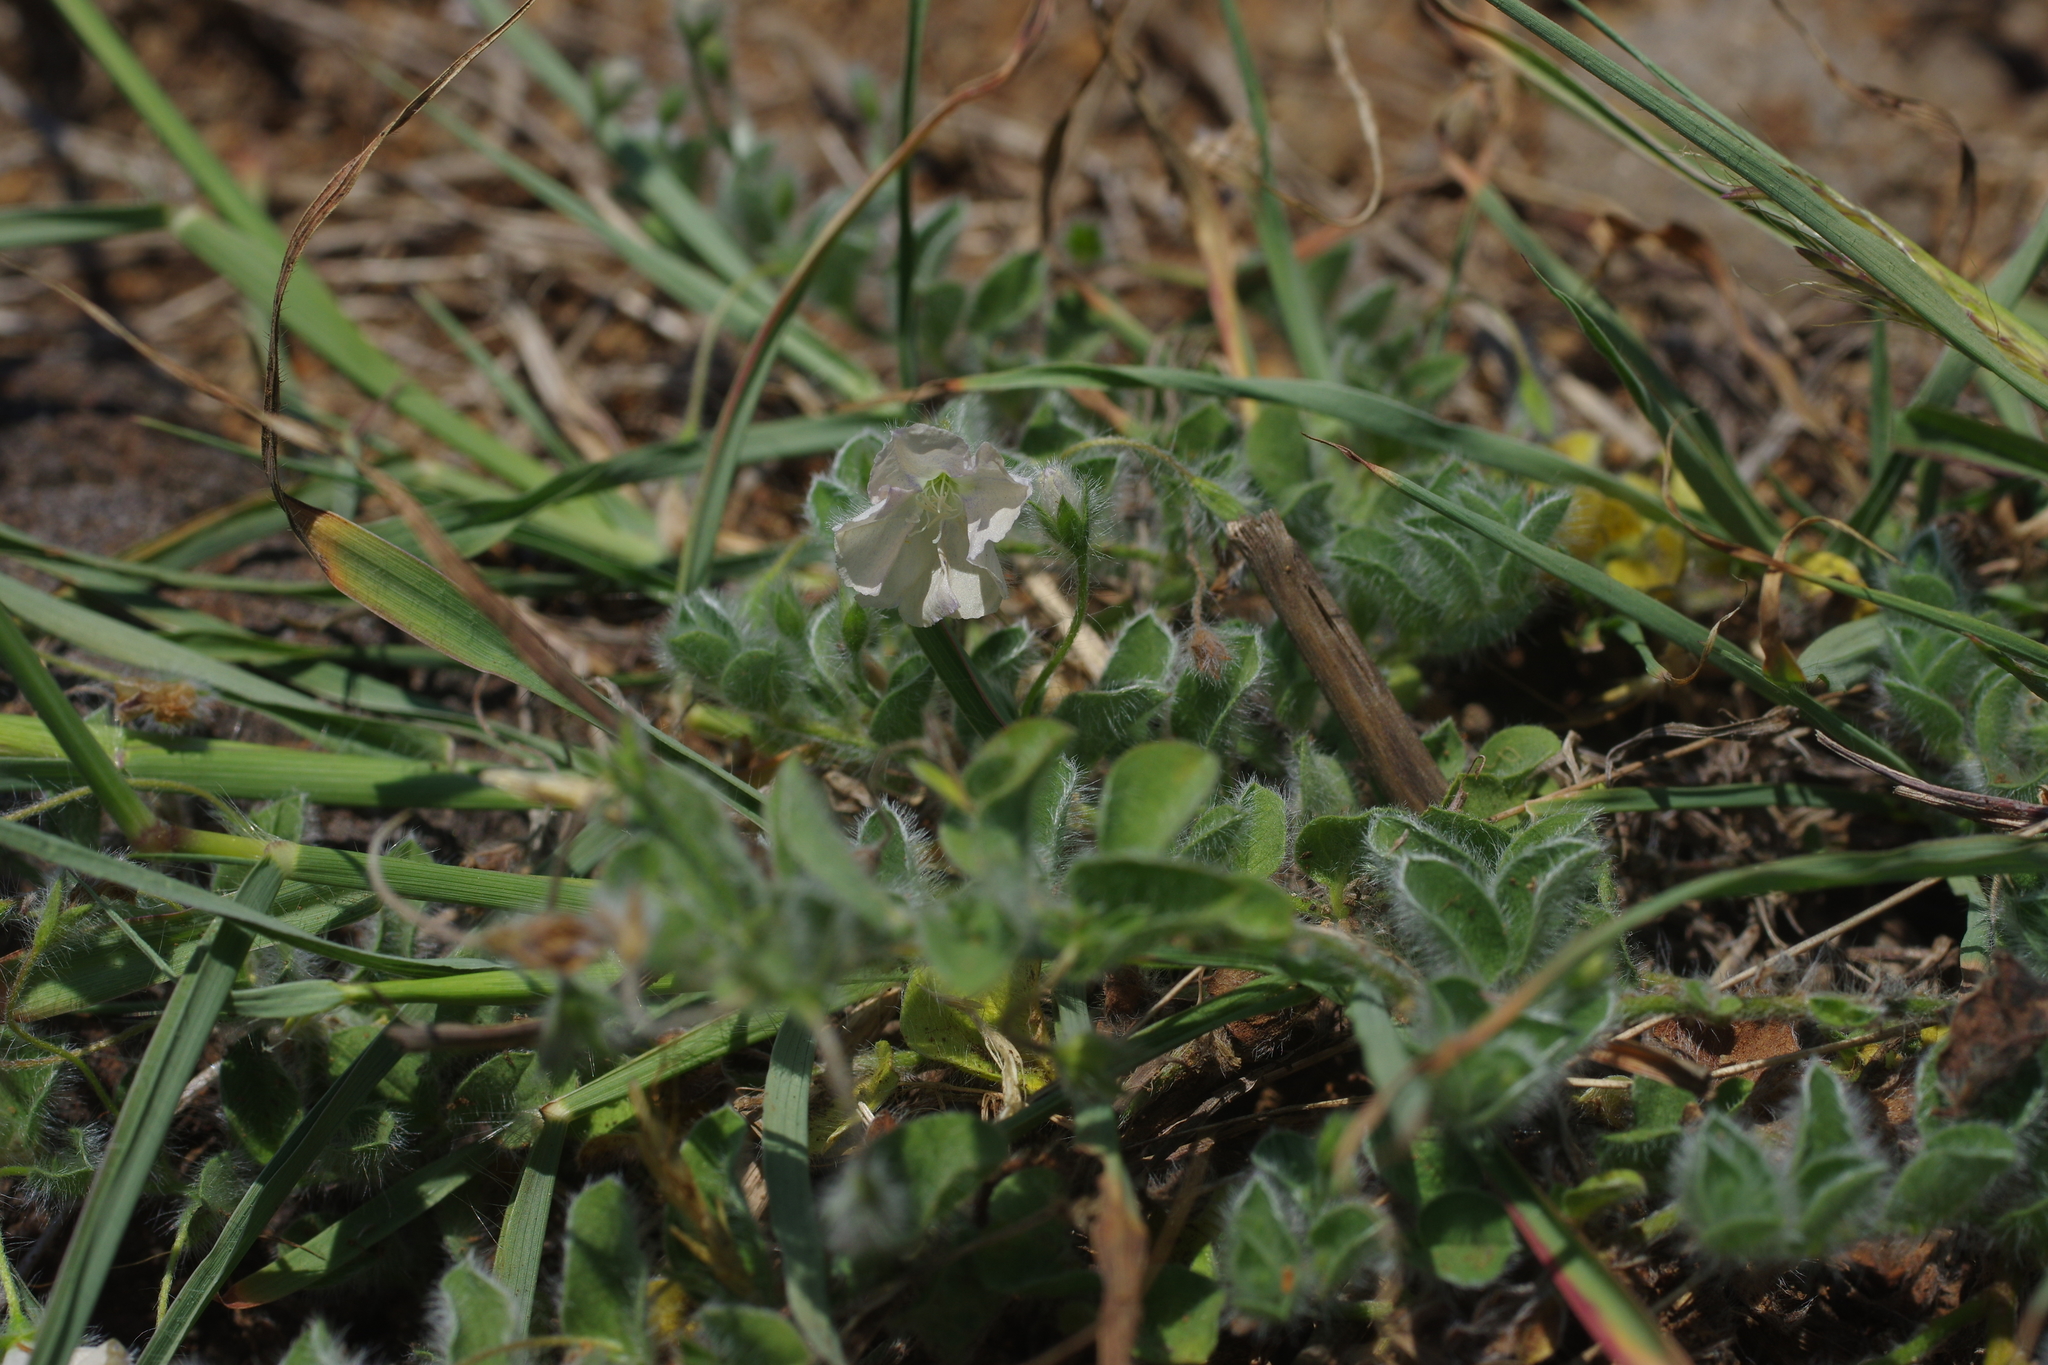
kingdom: Plantae
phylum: Tracheophyta
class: Magnoliopsida
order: Solanales
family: Convolvulaceae
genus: Evolvulus
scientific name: Evolvulus alsinoides
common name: Slender dwarf morning-glory
